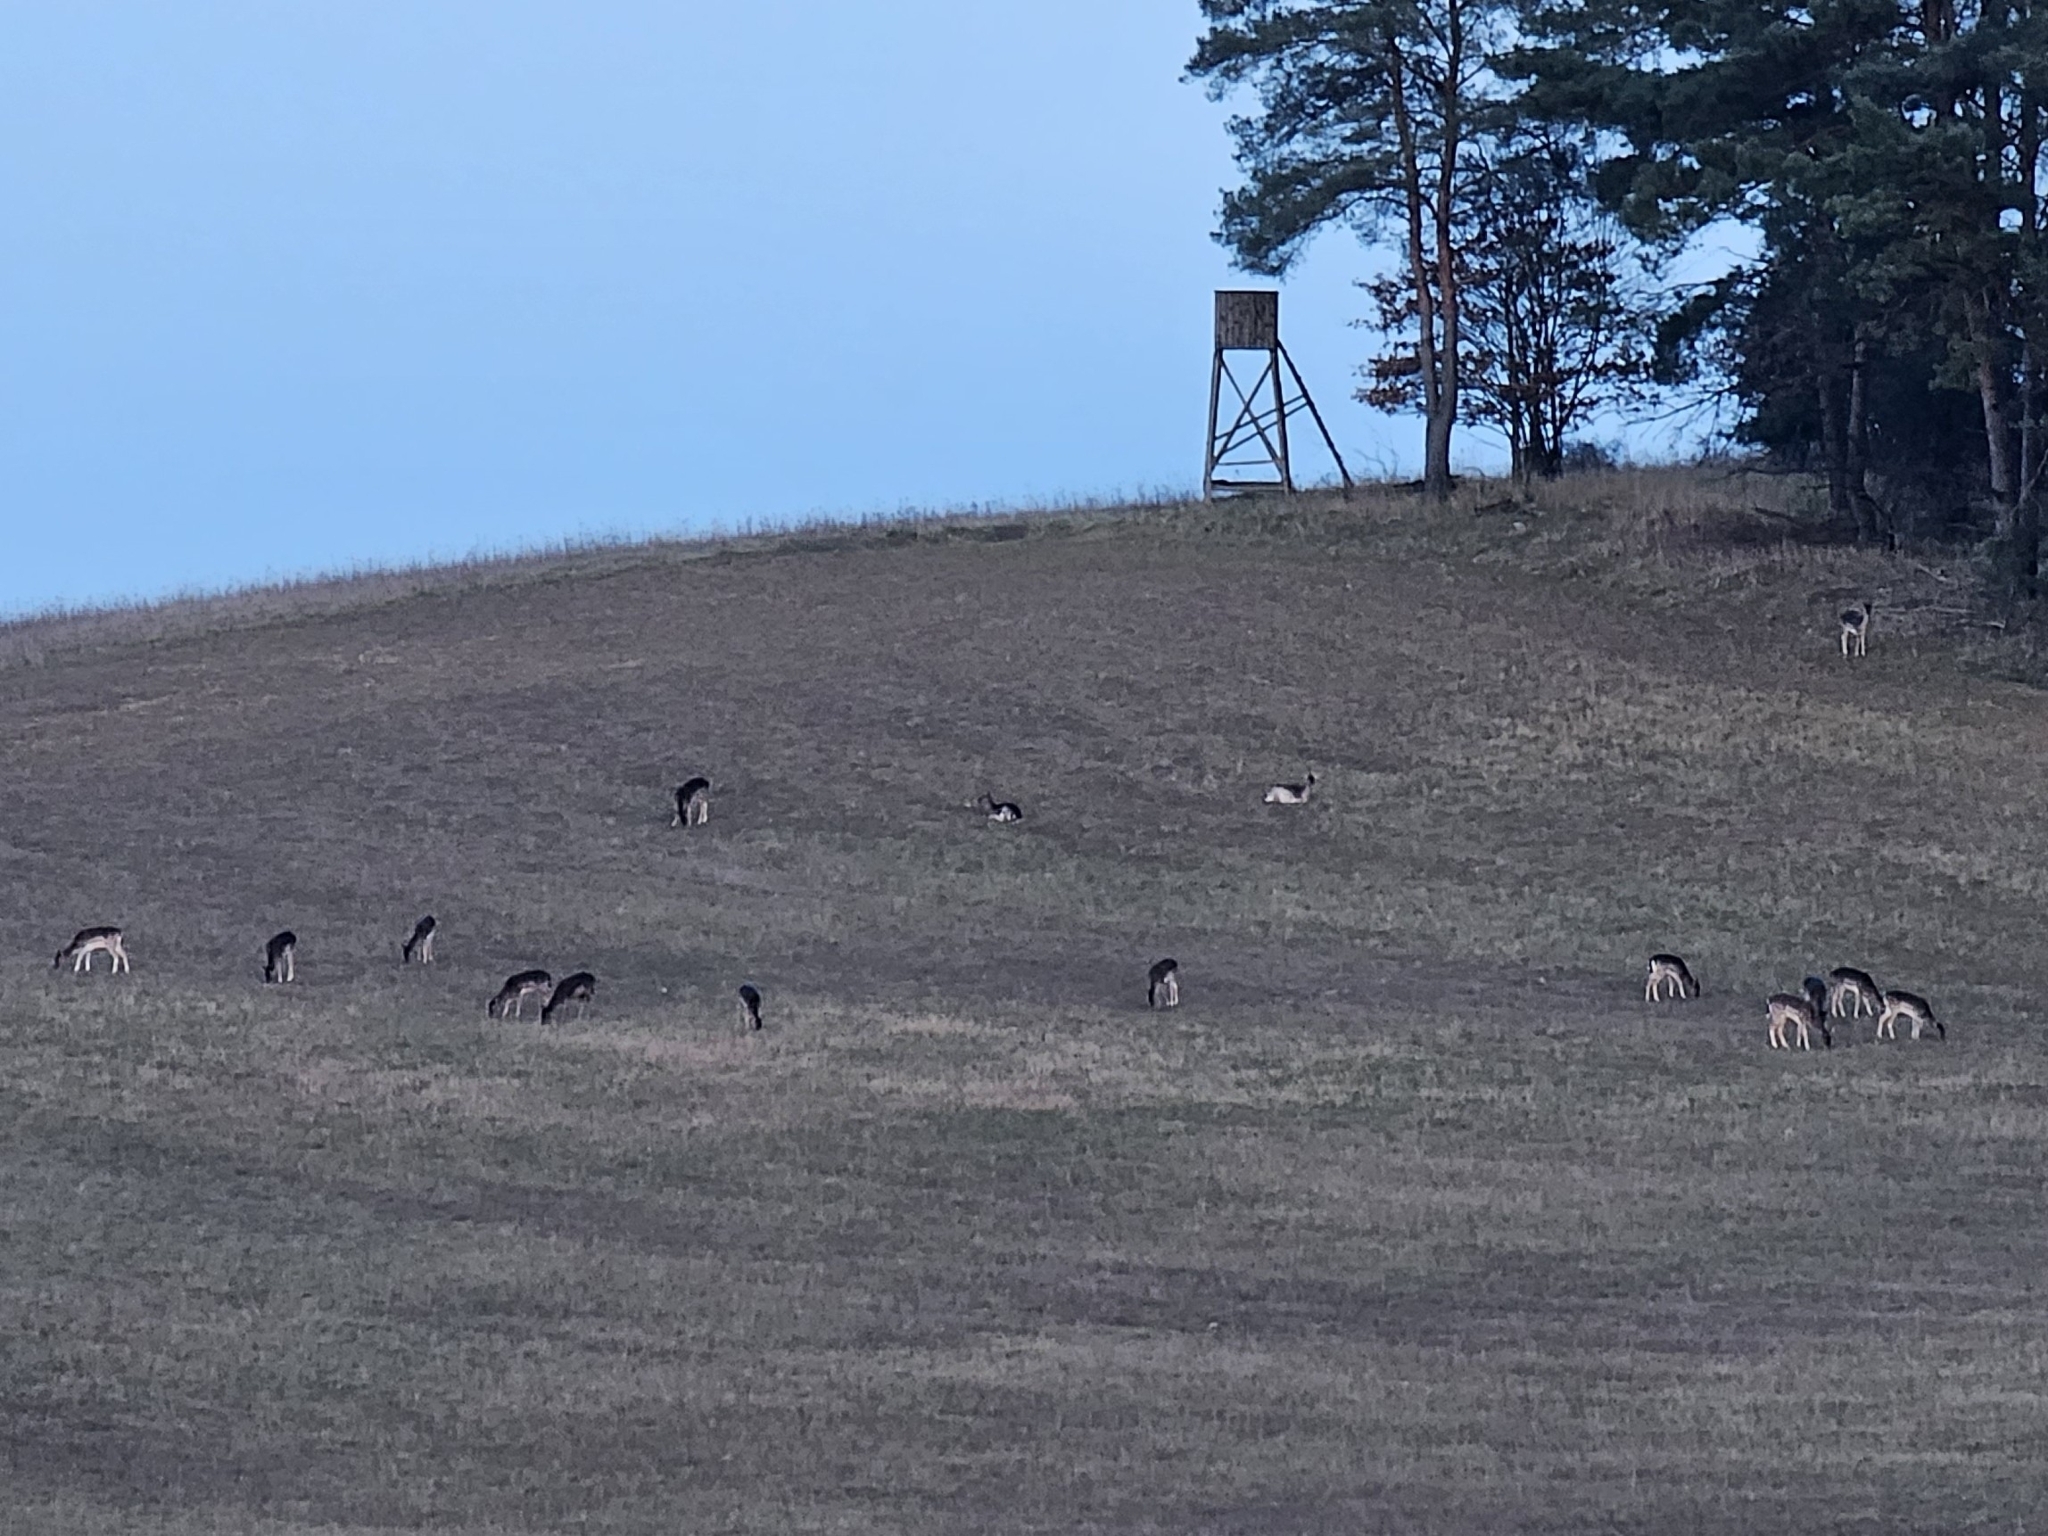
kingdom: Animalia
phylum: Chordata
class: Mammalia
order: Artiodactyla
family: Cervidae
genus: Dama
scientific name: Dama dama
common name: Fallow deer
